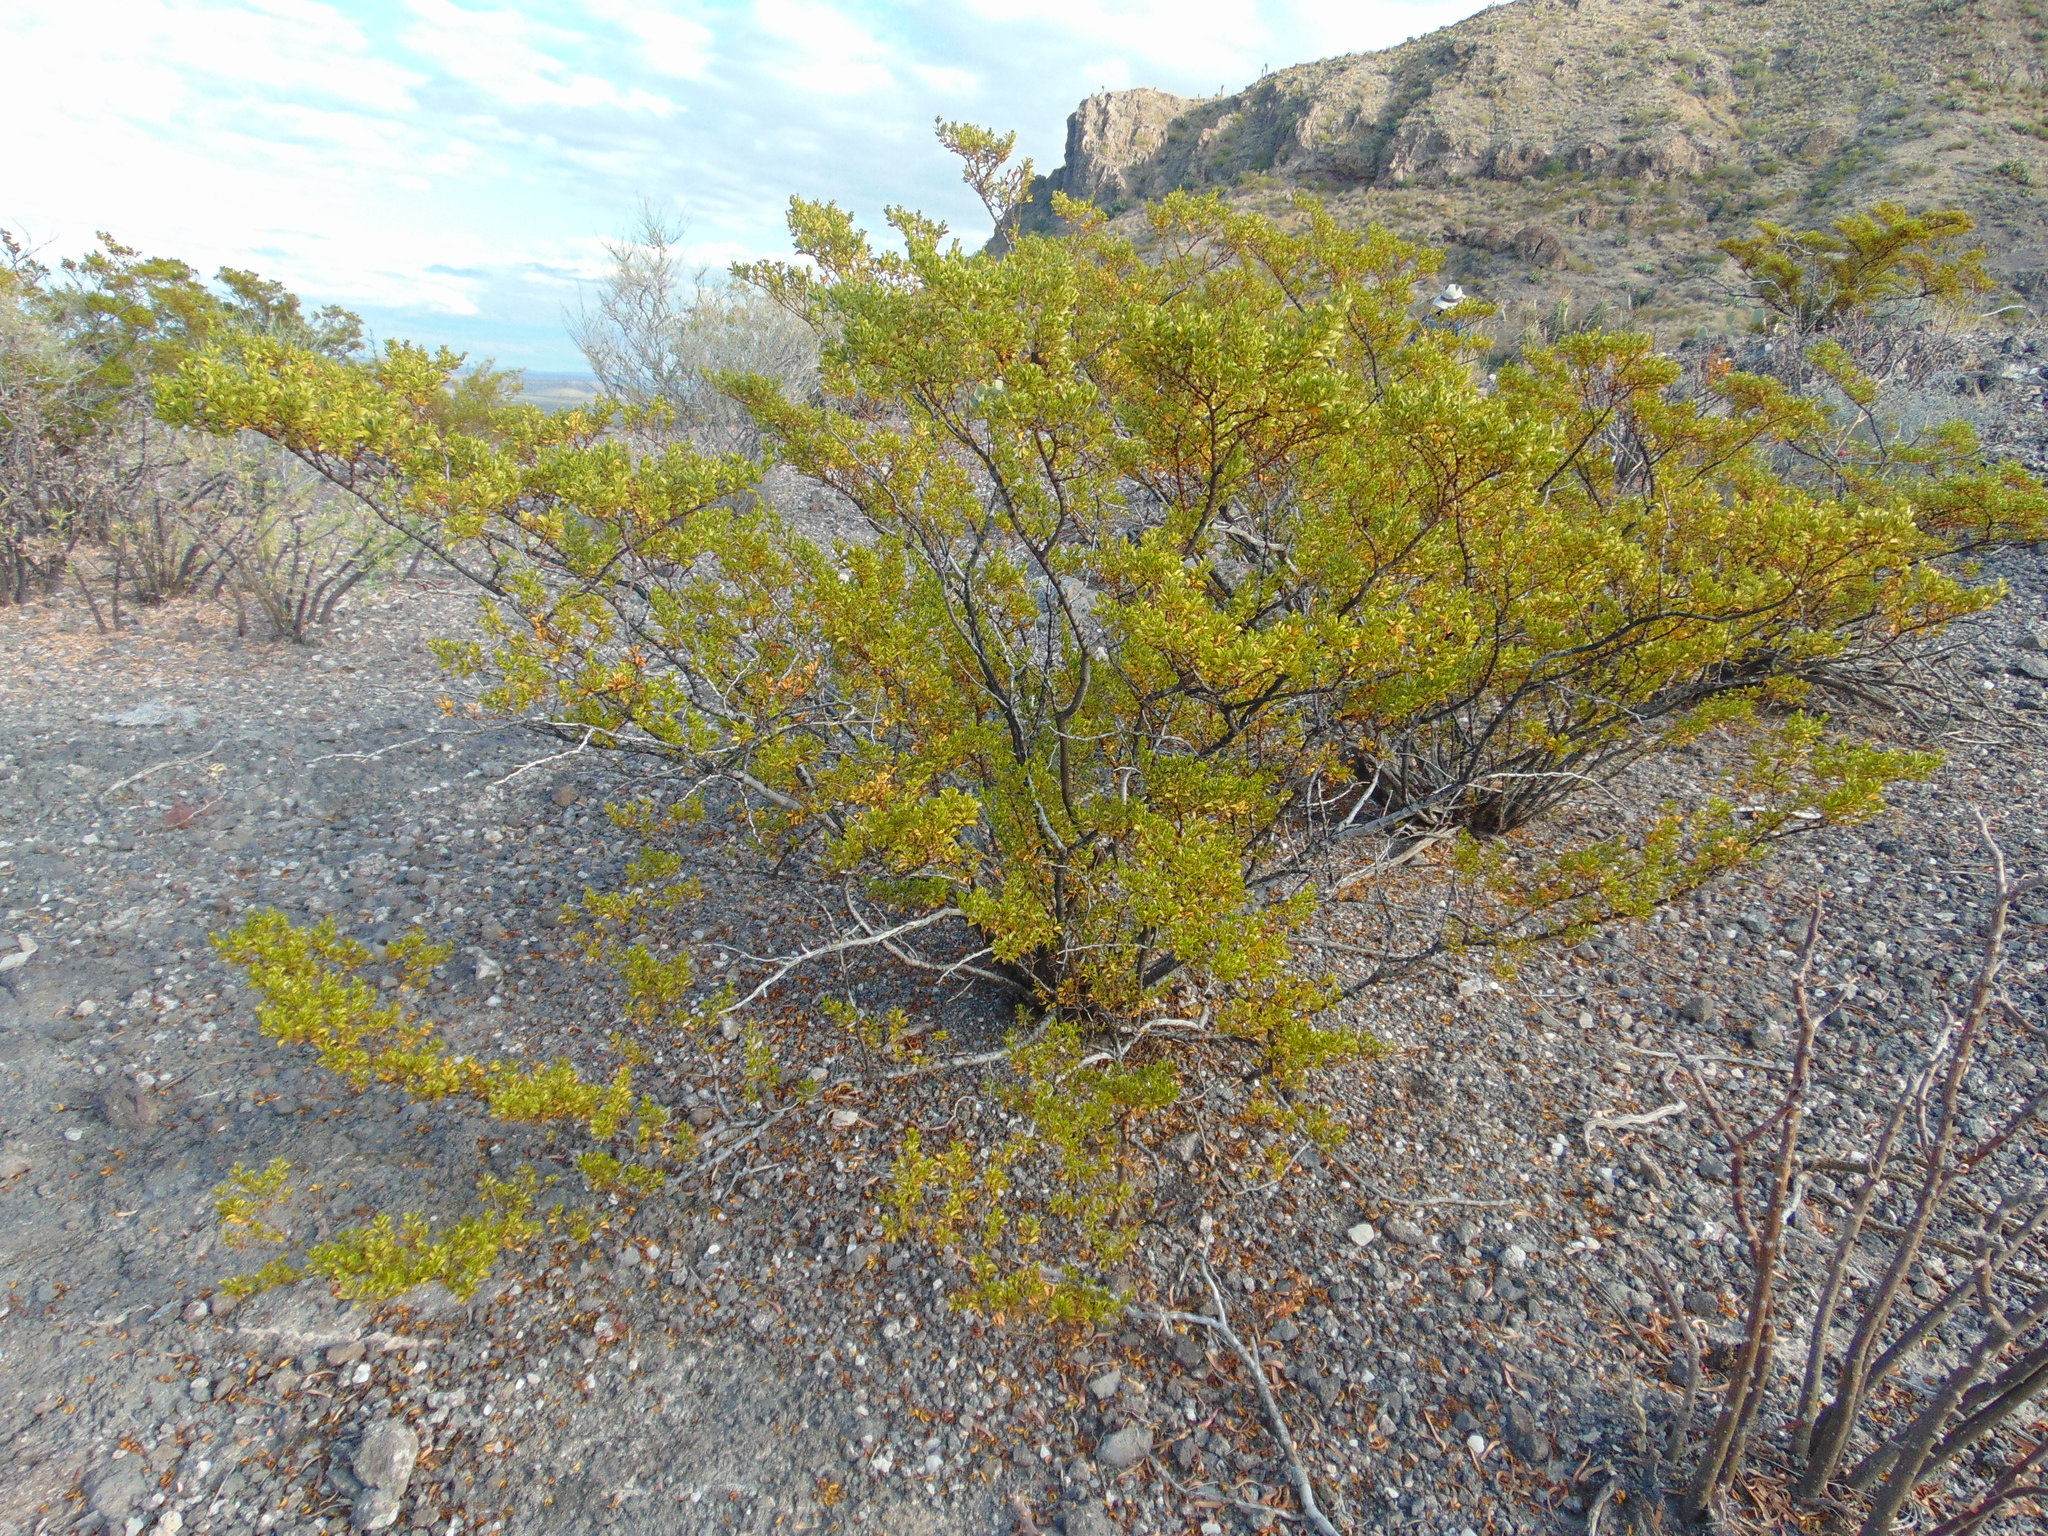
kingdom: Plantae
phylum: Tracheophyta
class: Magnoliopsida
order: Zygophyllales
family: Zygophyllaceae
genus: Larrea
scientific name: Larrea tridentata
